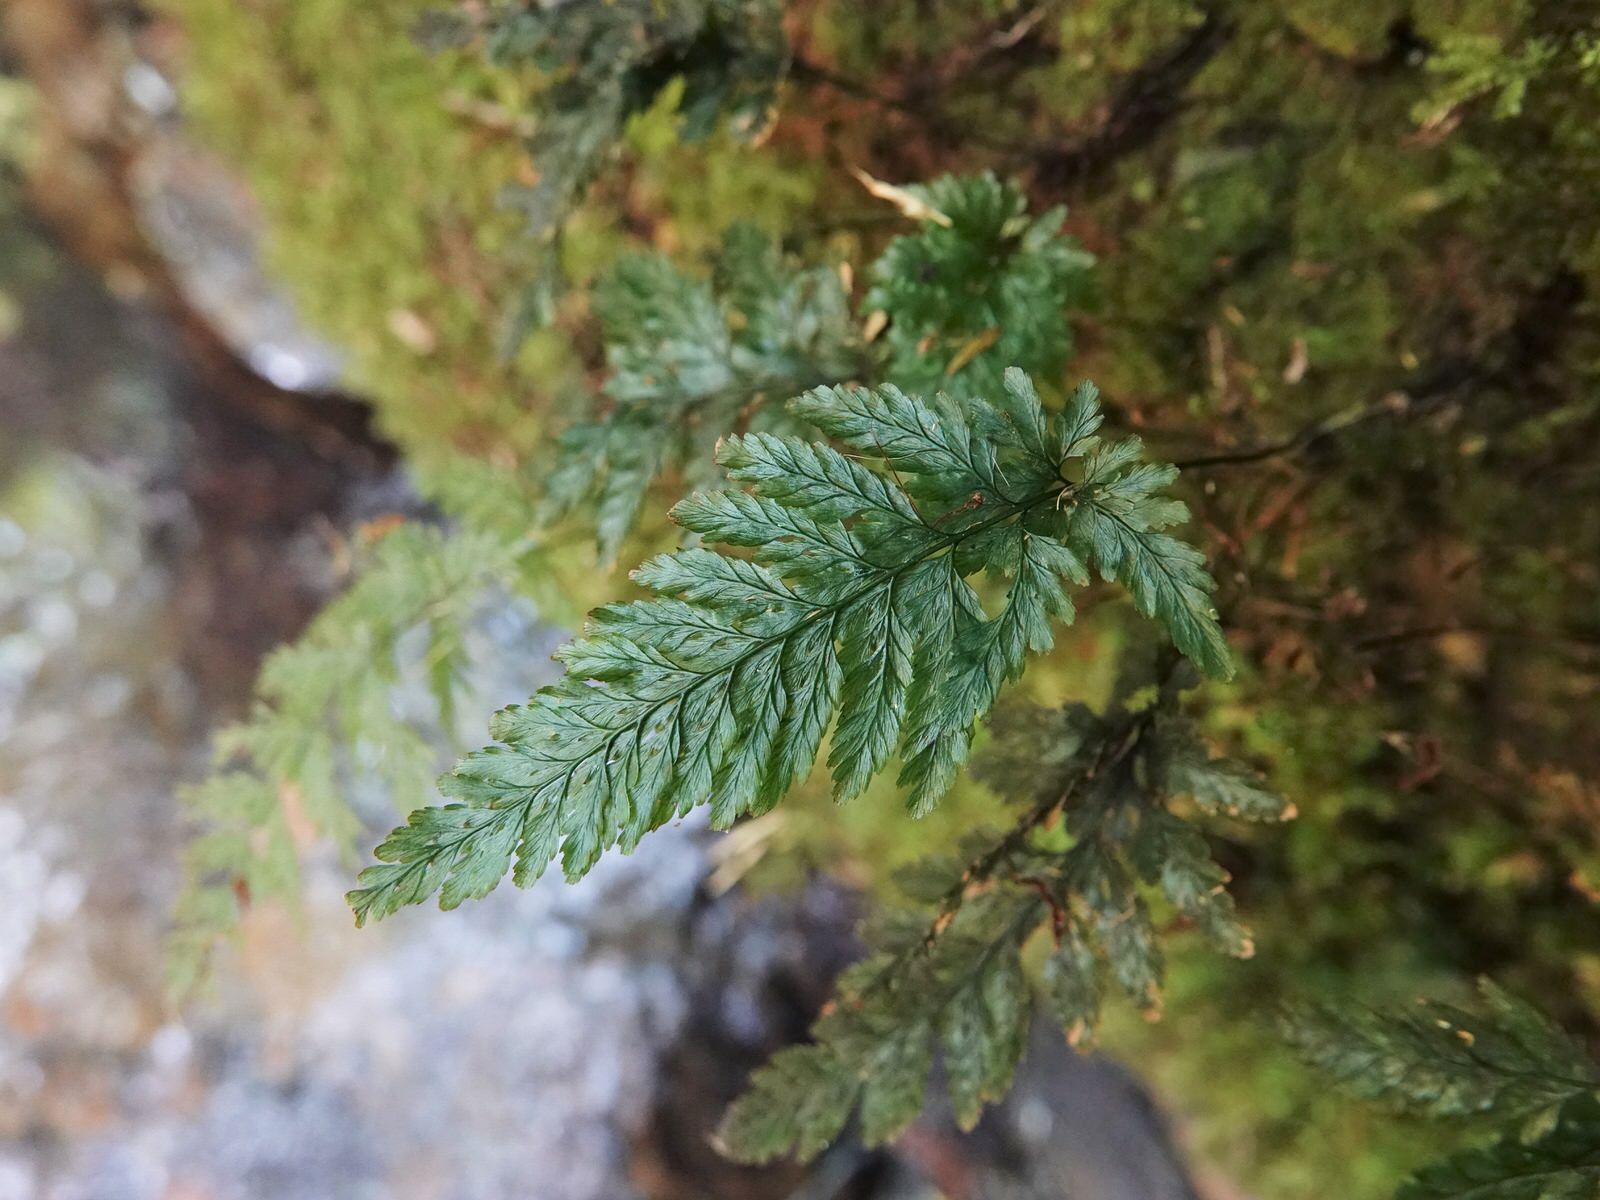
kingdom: Plantae
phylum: Tracheophyta
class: Polypodiopsida
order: Hymenophyllales
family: Hymenophyllaceae
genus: Abrodictyum
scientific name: Abrodictyum elongatum
